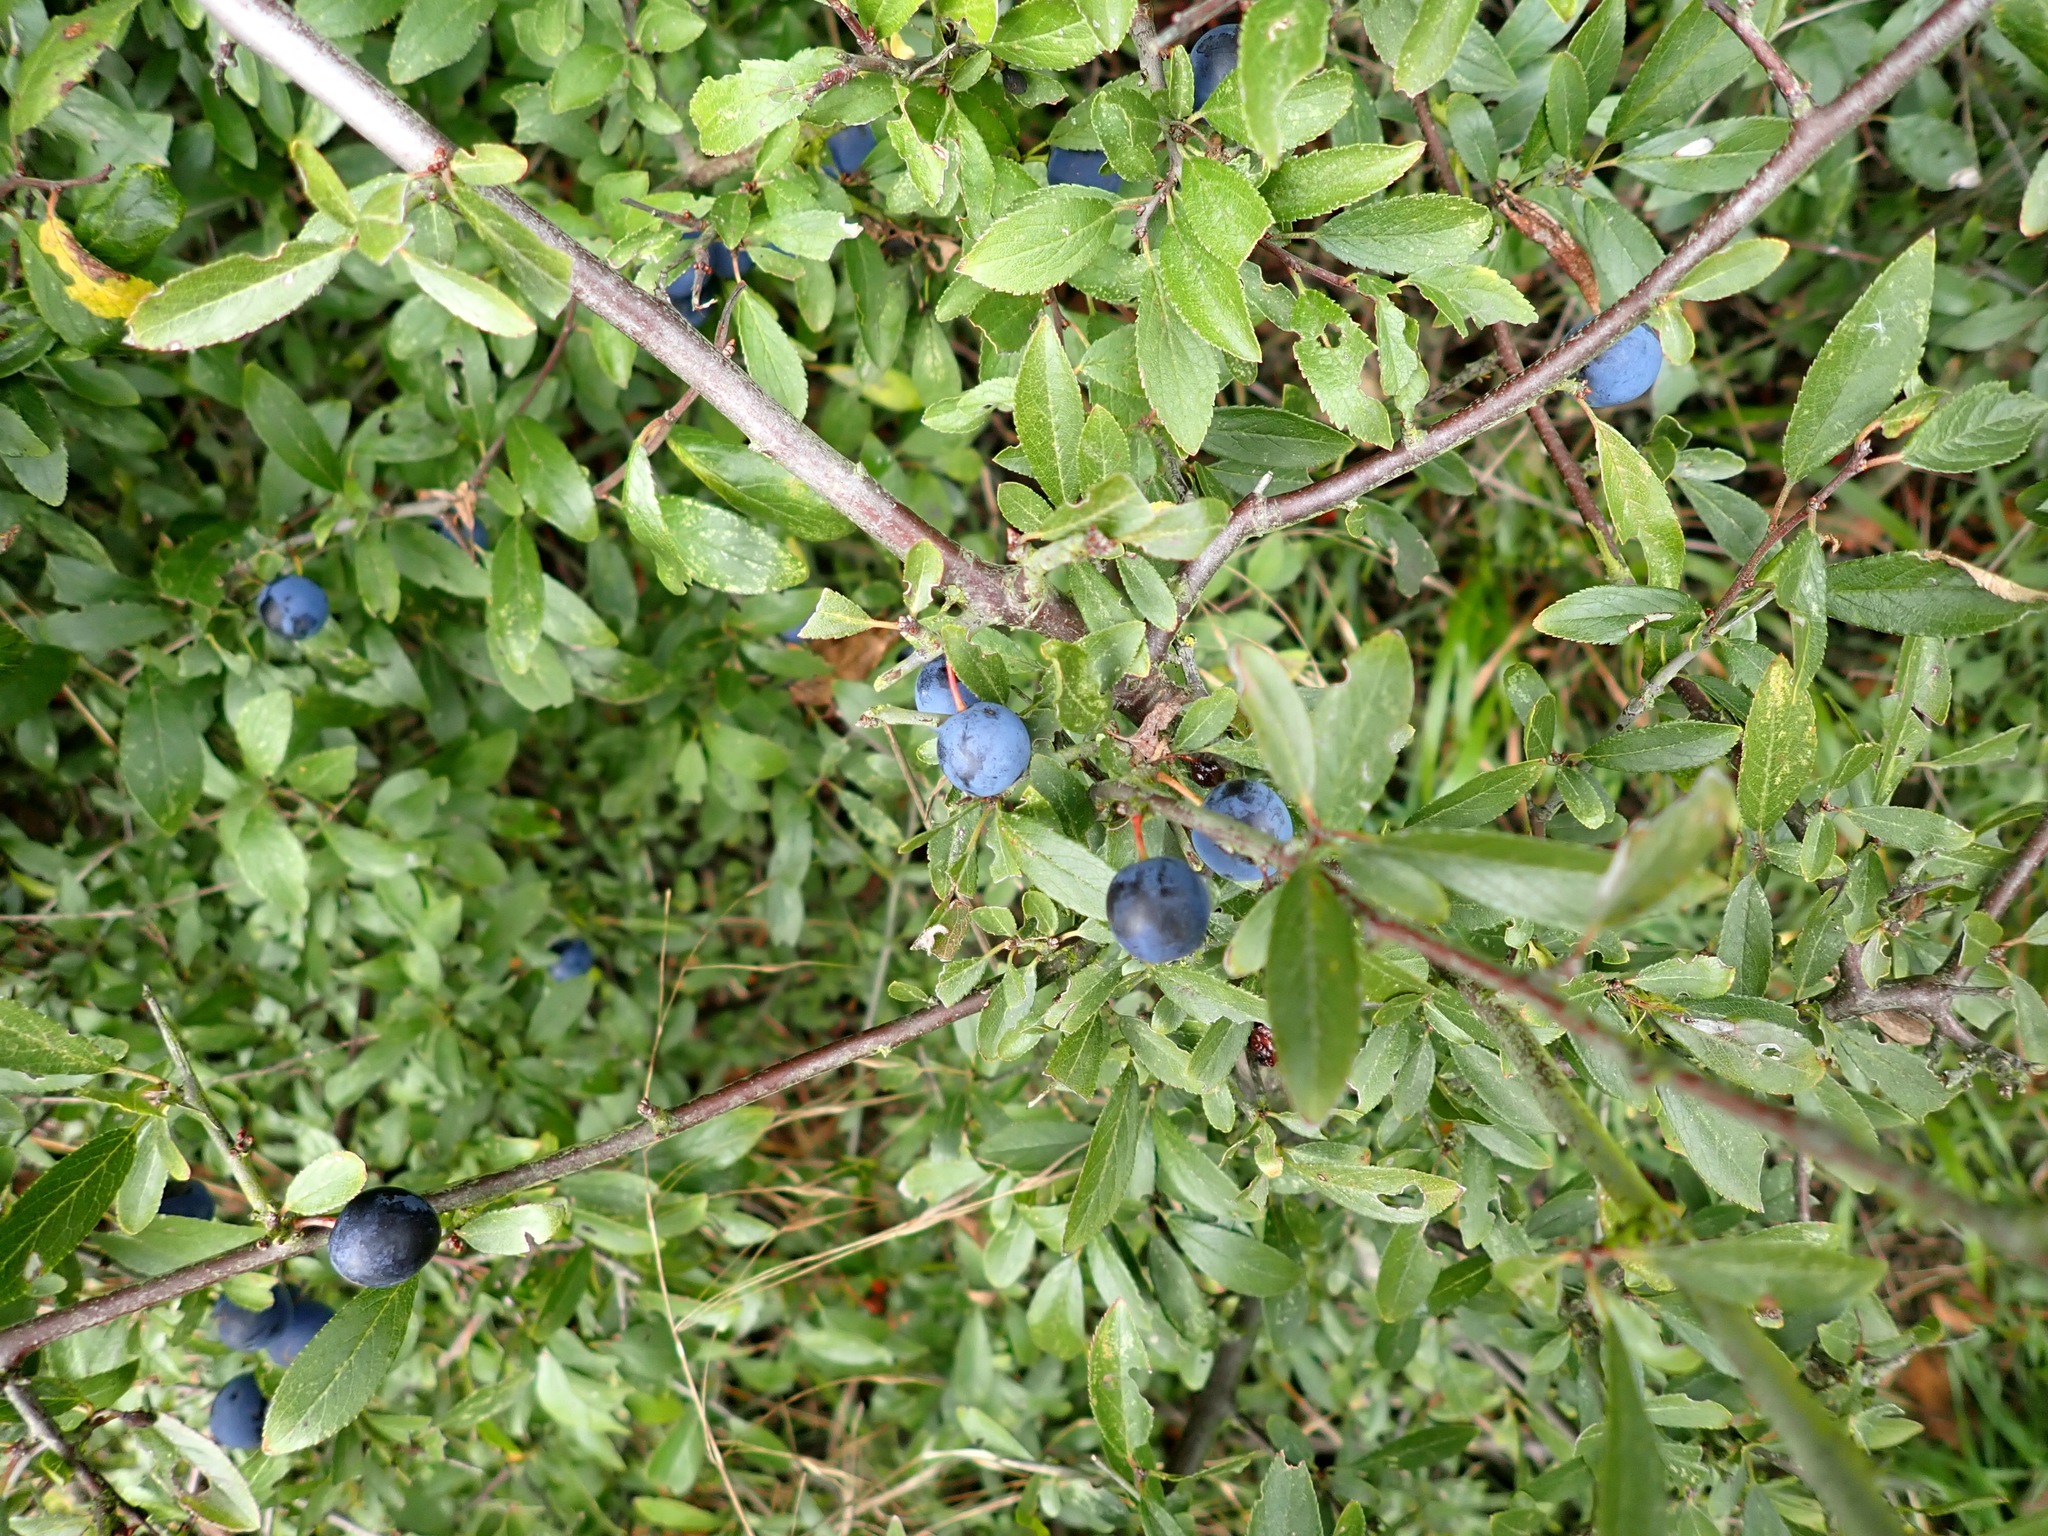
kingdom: Plantae
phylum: Tracheophyta
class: Magnoliopsida
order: Rosales
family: Rosaceae
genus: Prunus
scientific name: Prunus spinosa
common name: Blackthorn
